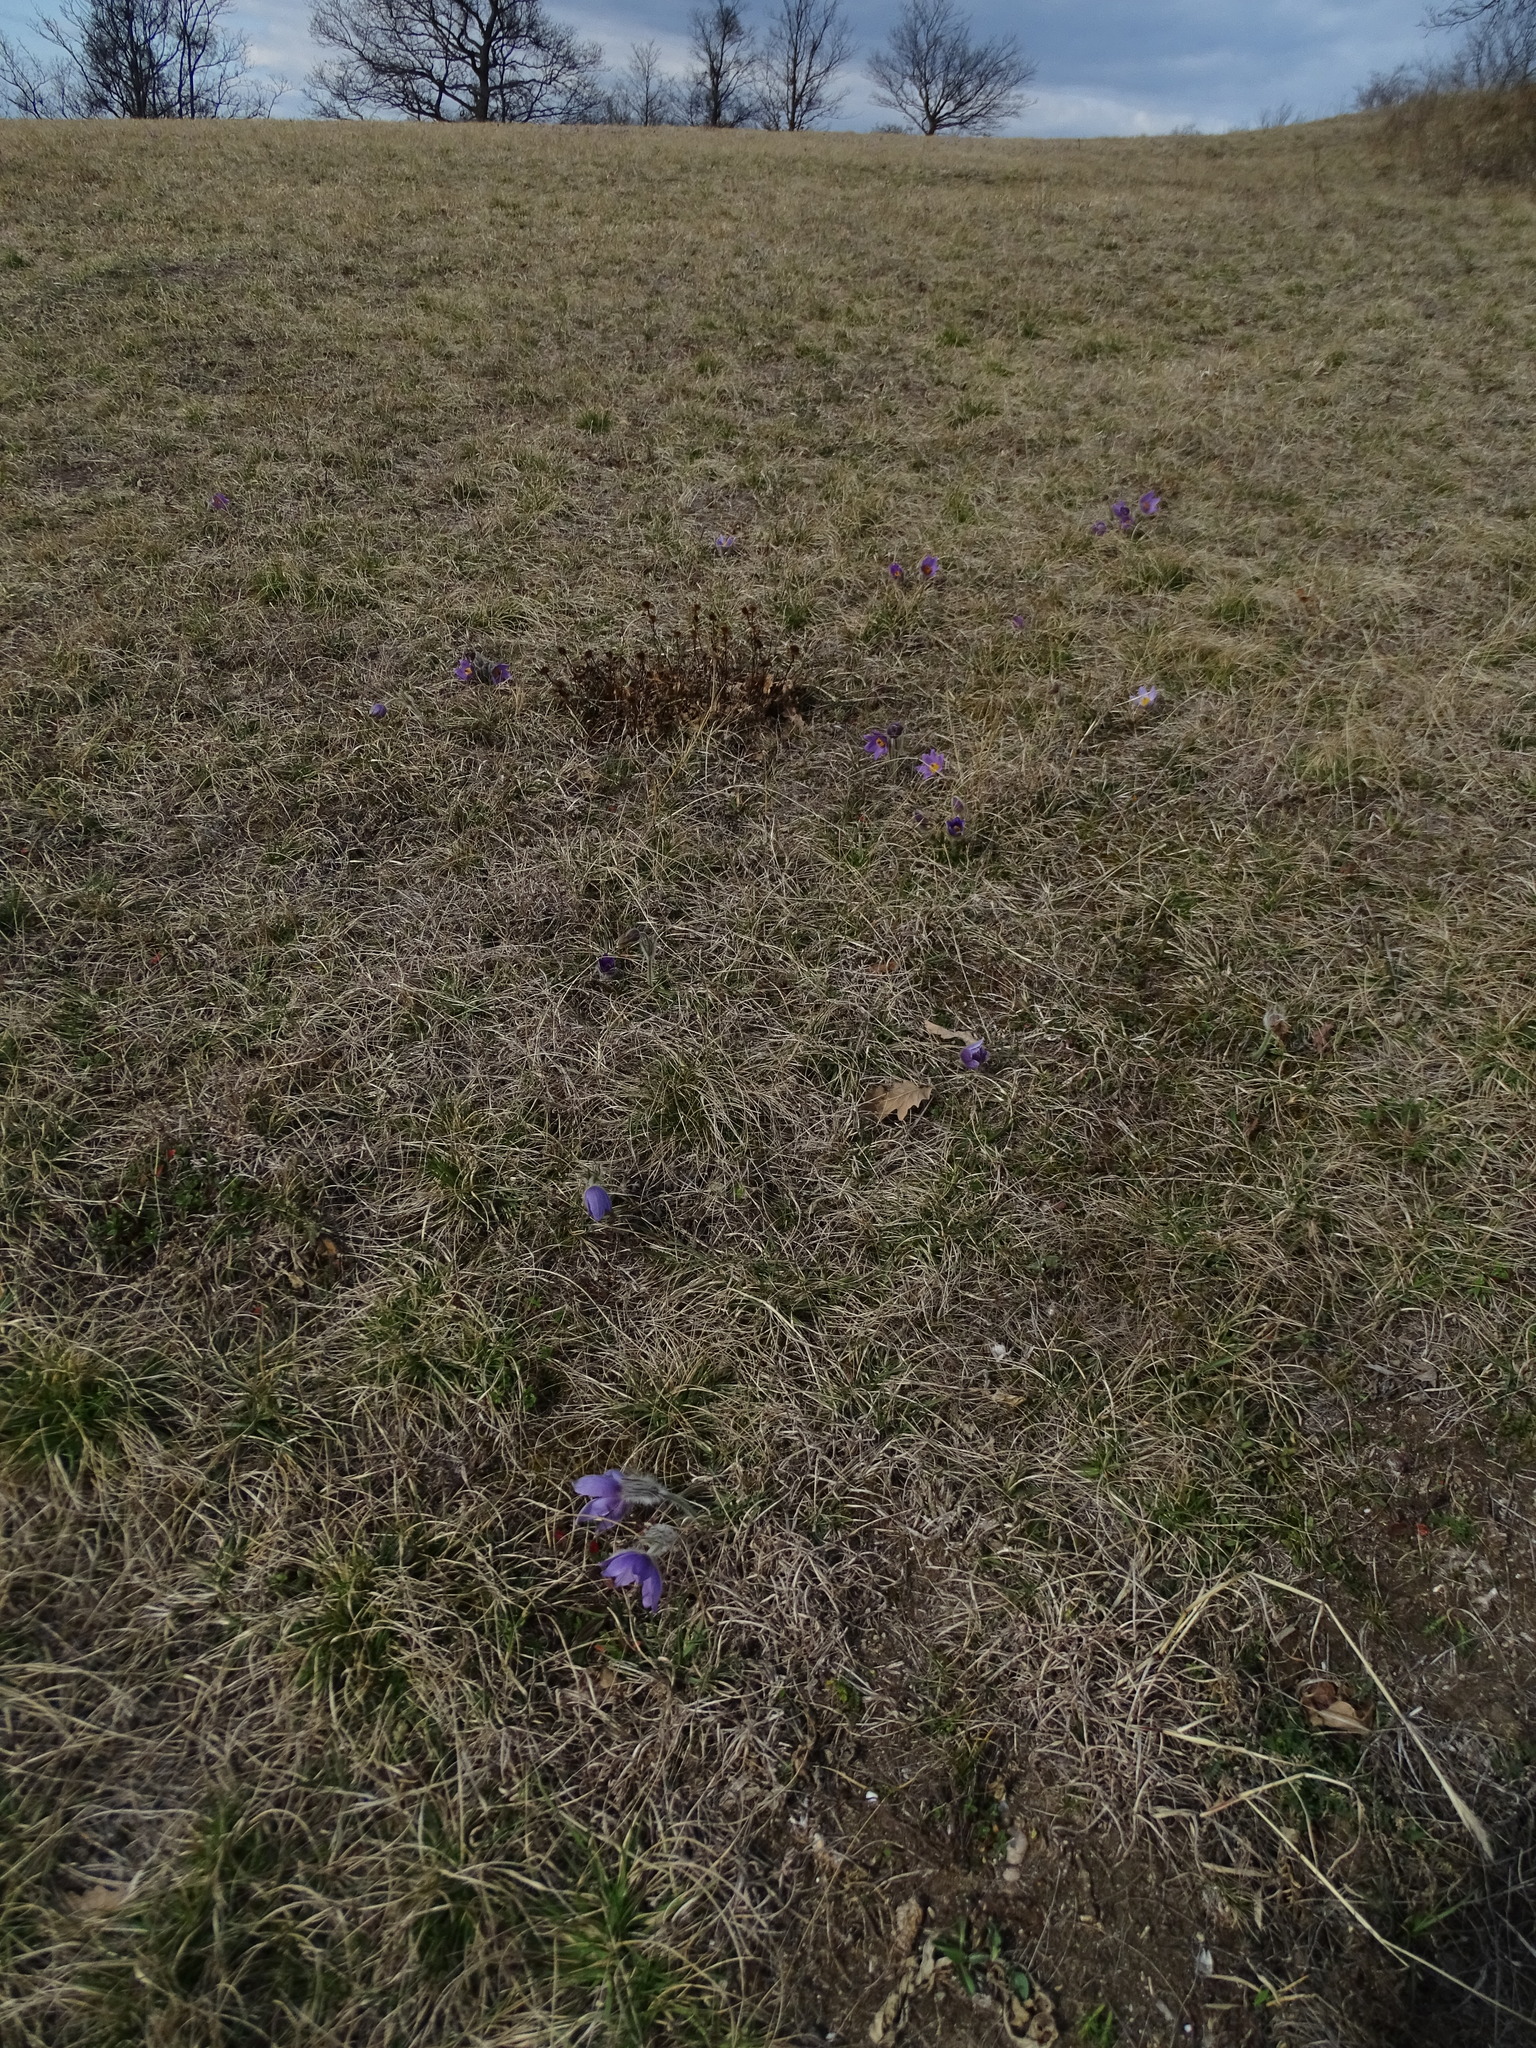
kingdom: Plantae
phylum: Tracheophyta
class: Magnoliopsida
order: Ranunculales
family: Ranunculaceae
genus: Pulsatilla
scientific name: Pulsatilla grandis
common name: Greater pasque flower
